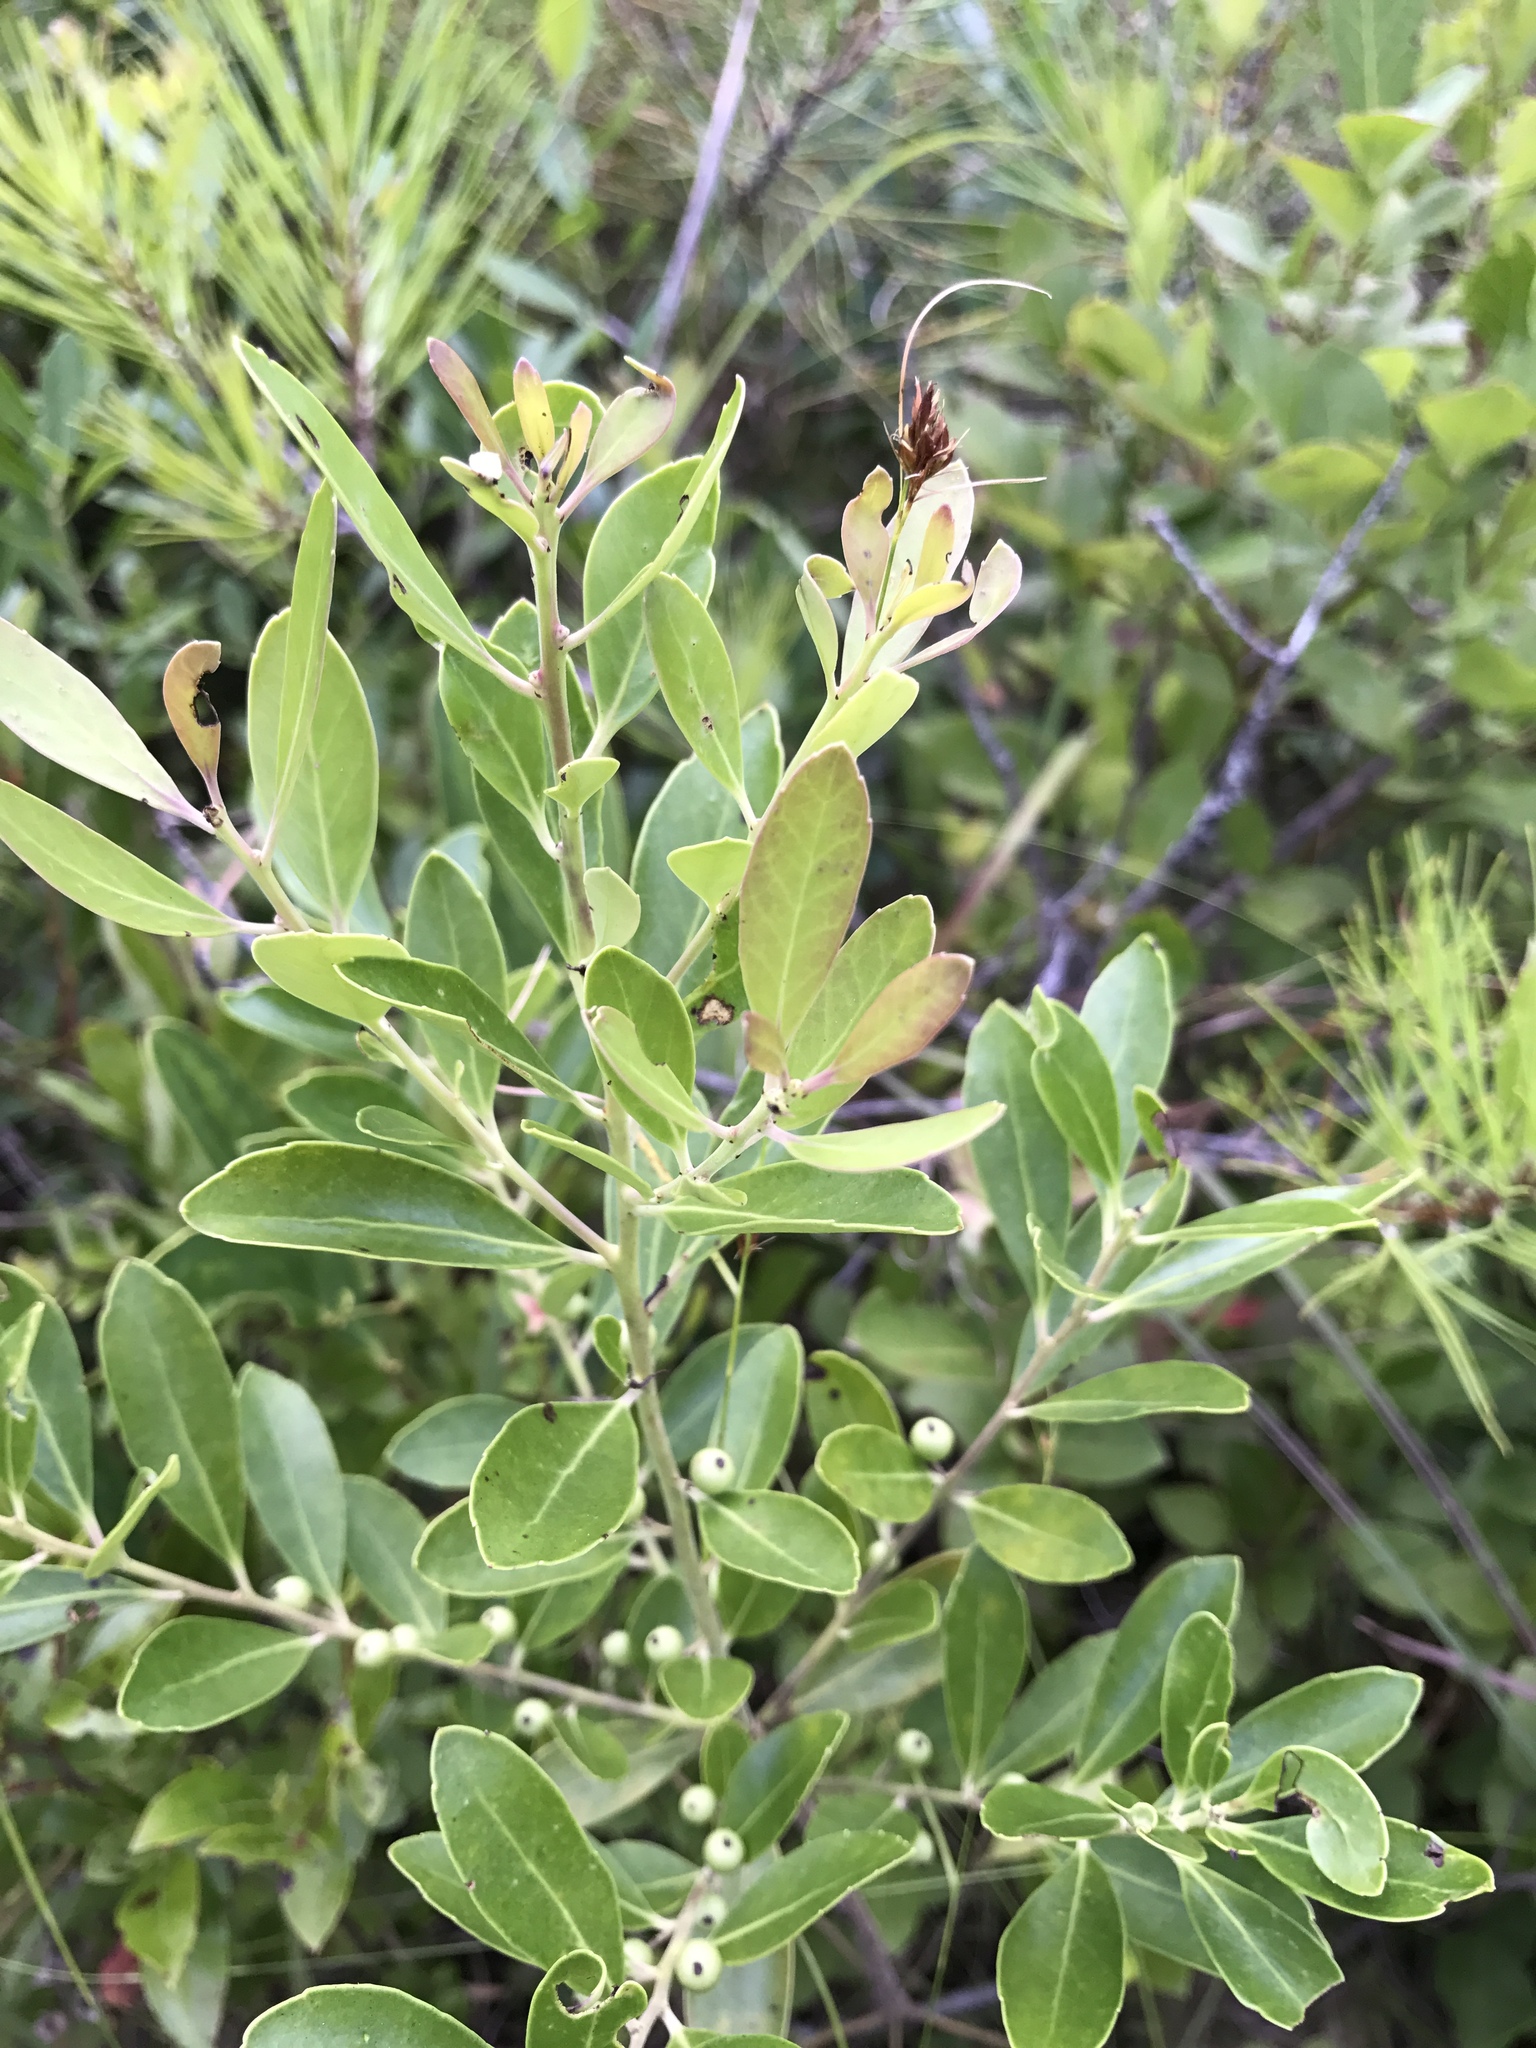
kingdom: Plantae
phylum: Tracheophyta
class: Magnoliopsida
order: Aquifoliales
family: Aquifoliaceae
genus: Ilex
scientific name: Ilex glabra
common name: Bitter gallberry
